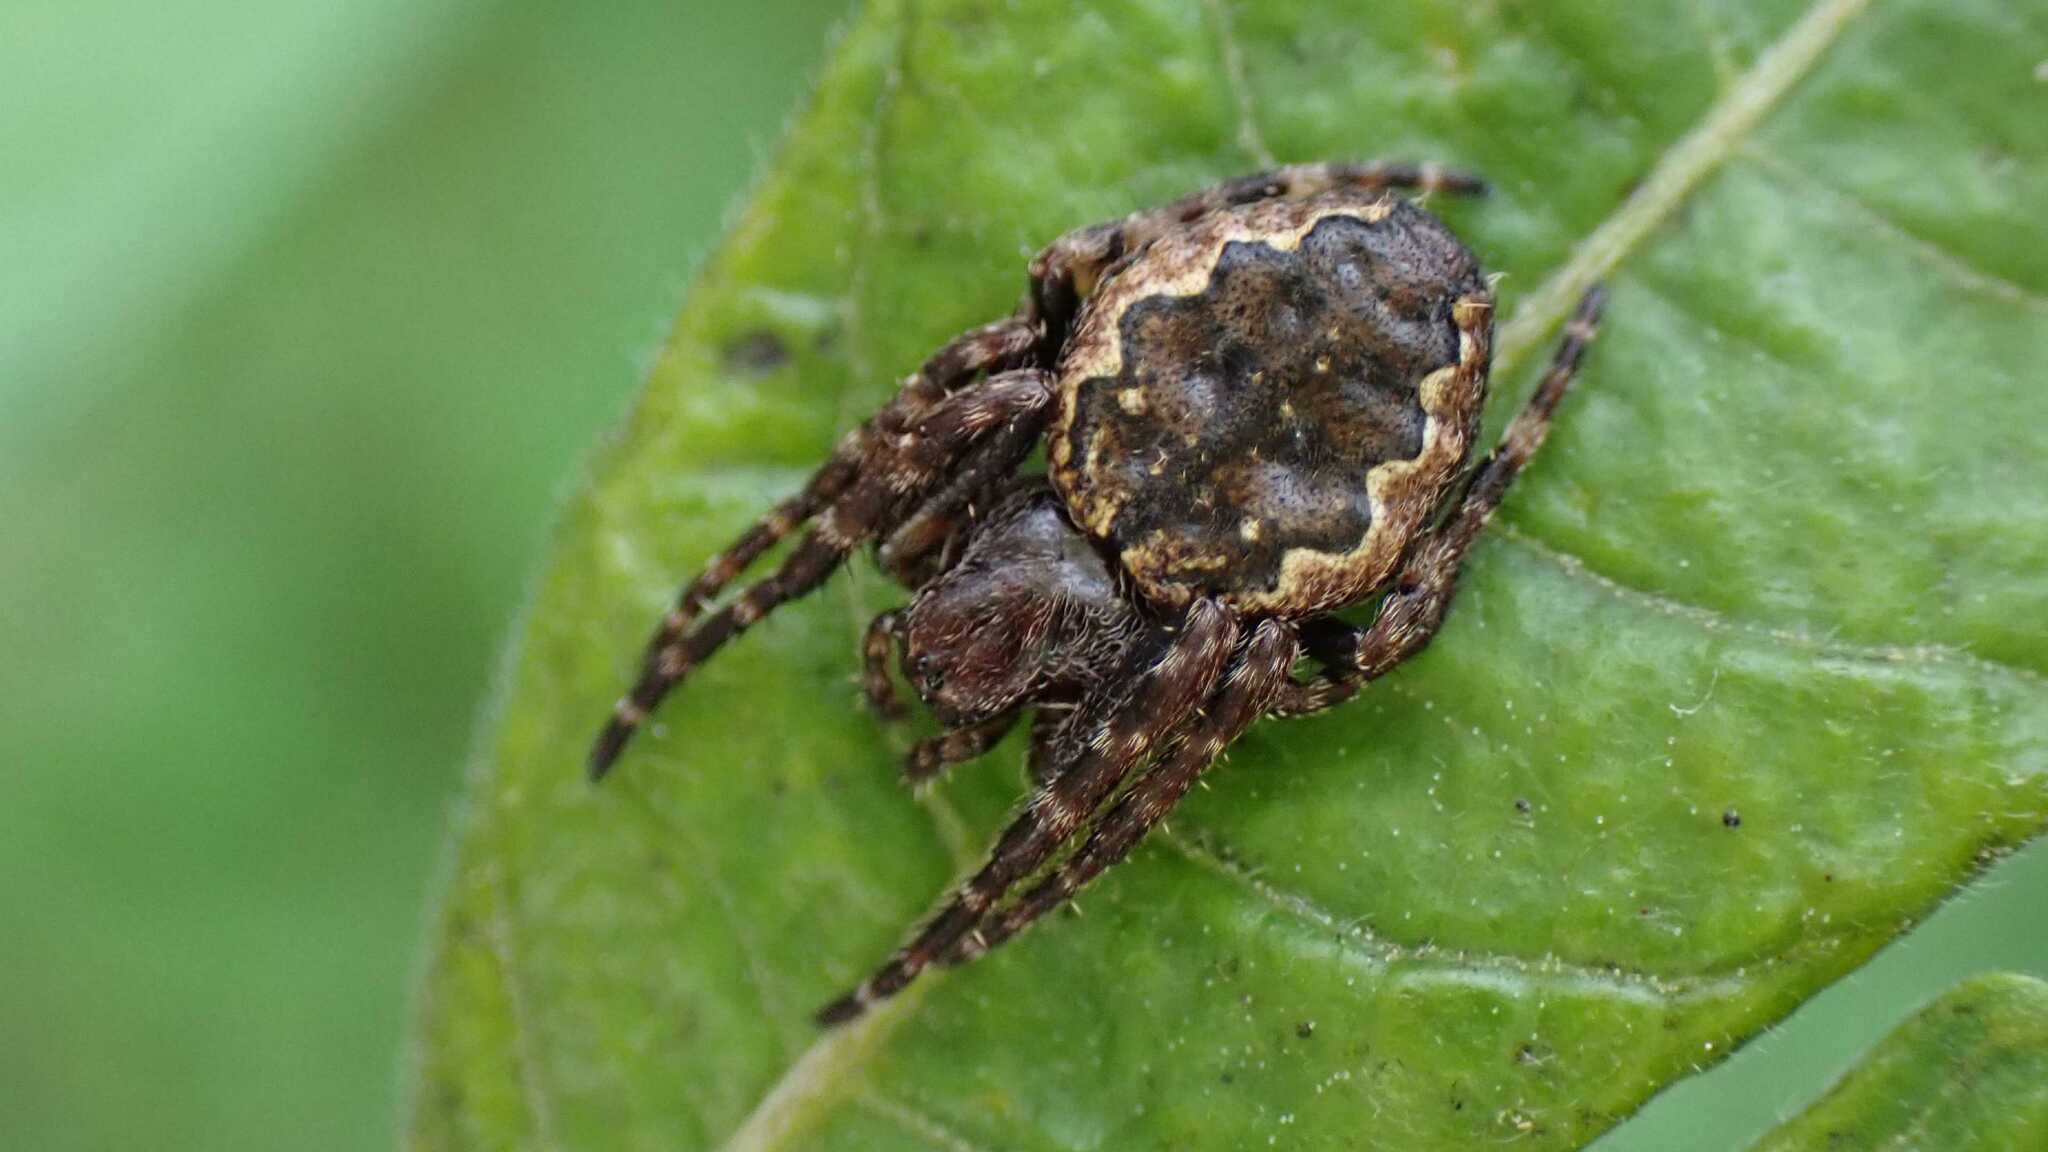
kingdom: Animalia
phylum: Arthropoda
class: Arachnida
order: Araneae
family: Araneidae
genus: Nuctenea
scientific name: Nuctenea umbratica
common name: Toad spider
